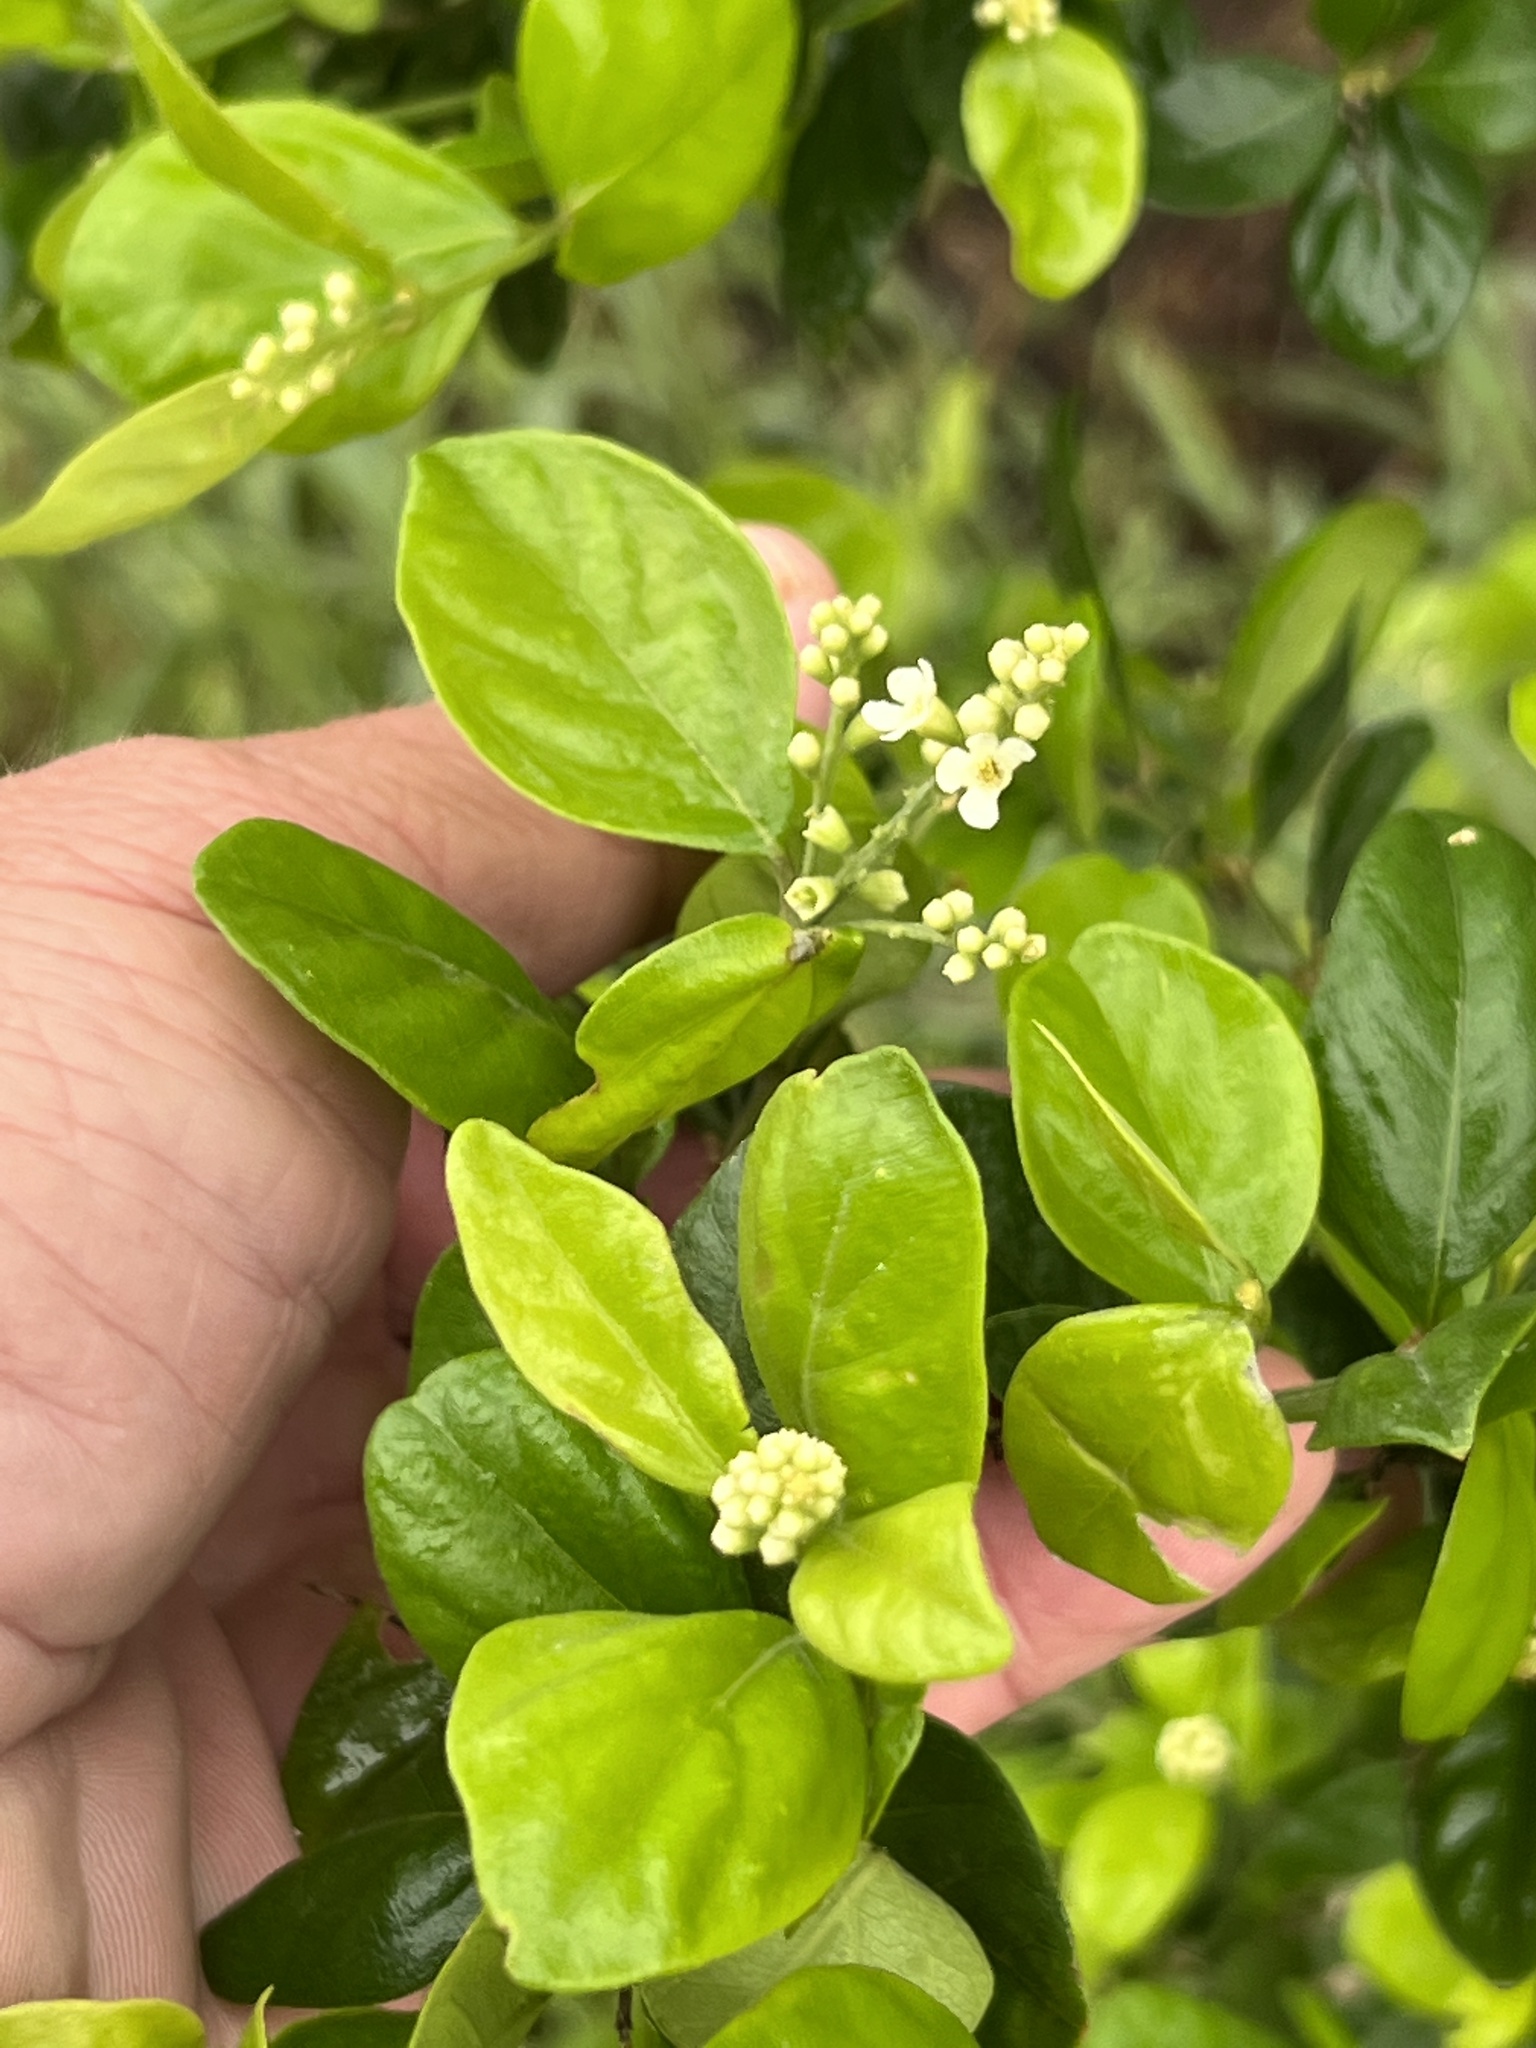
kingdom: Plantae
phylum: Tracheophyta
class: Magnoliopsida
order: Lamiales
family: Verbenaceae
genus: Citharexylum
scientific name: Citharexylum berlandieri
